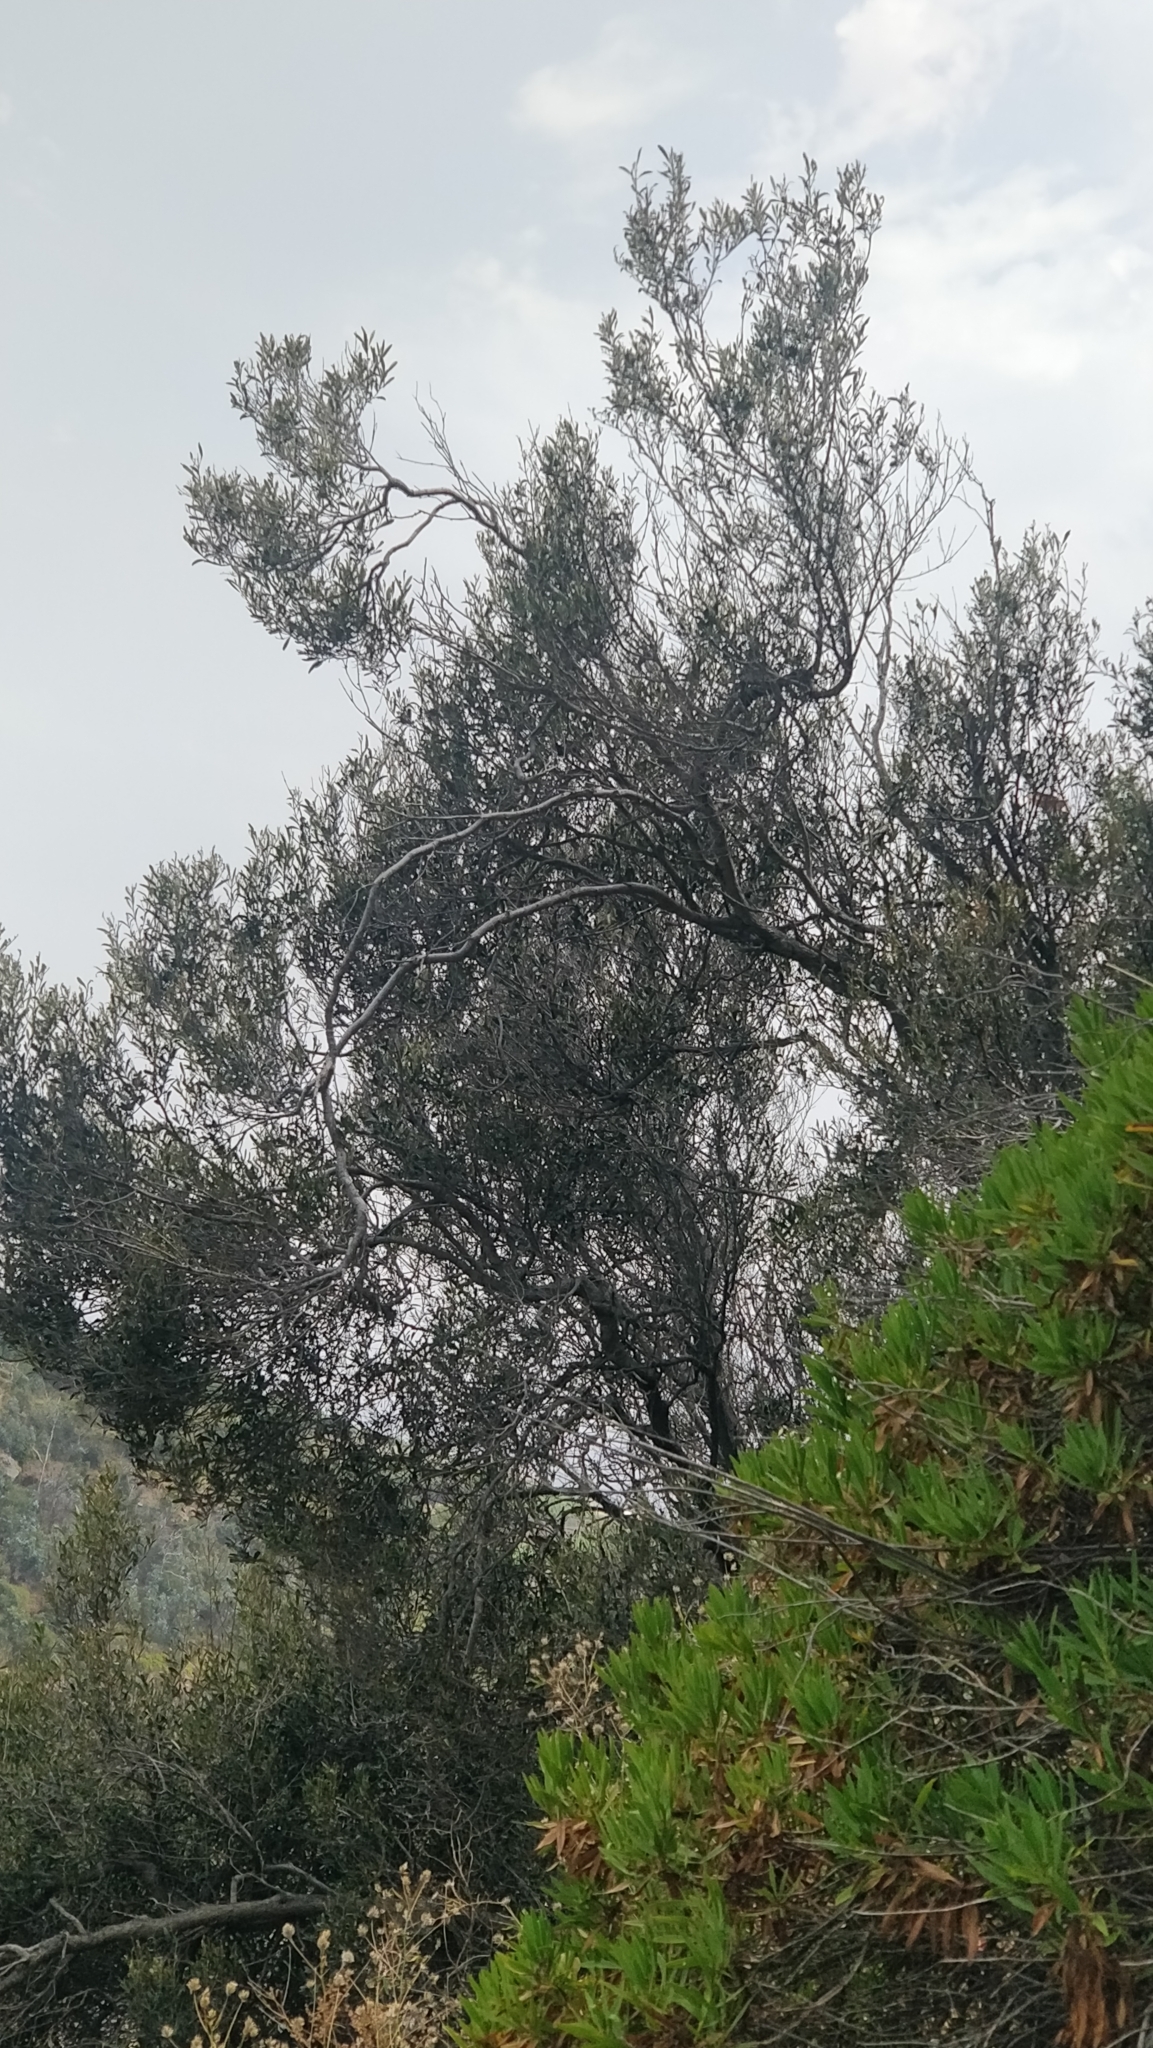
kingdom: Plantae
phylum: Tracheophyta
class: Magnoliopsida
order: Lamiales
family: Oleaceae
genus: Olea
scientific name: Olea europaea
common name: Olive
